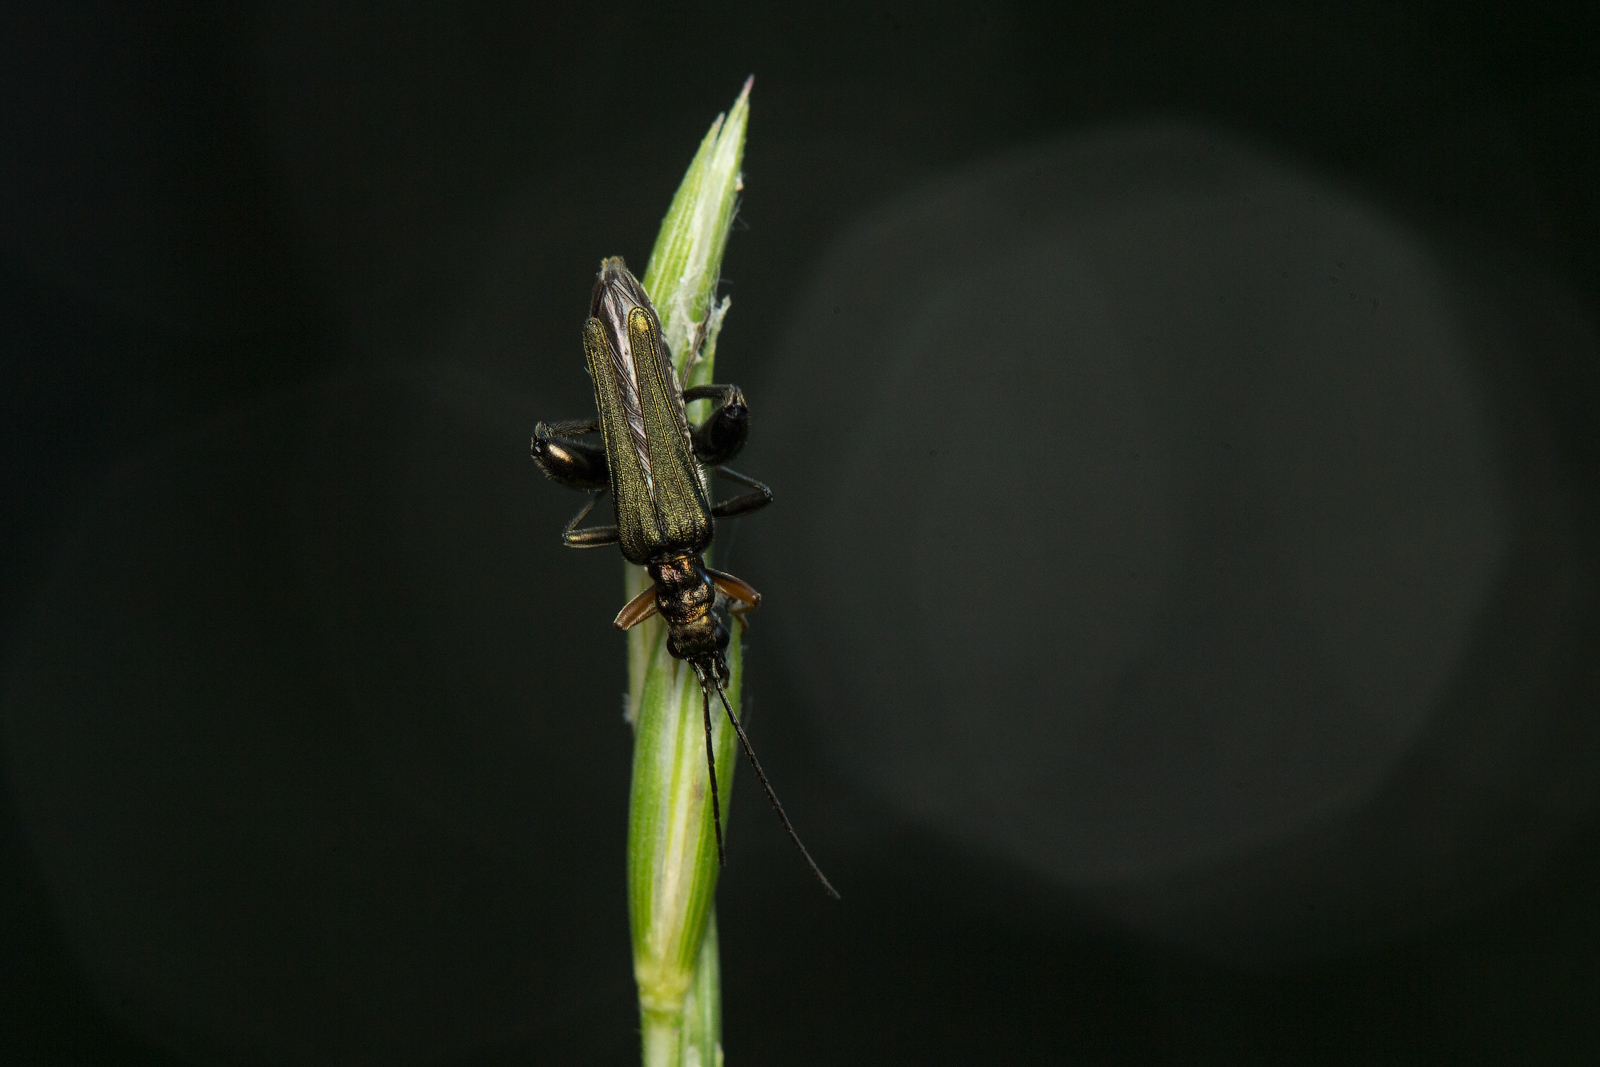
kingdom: Animalia
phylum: Arthropoda
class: Insecta
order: Coleoptera
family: Oedemeridae
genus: Oedemera
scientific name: Oedemera flavipes
